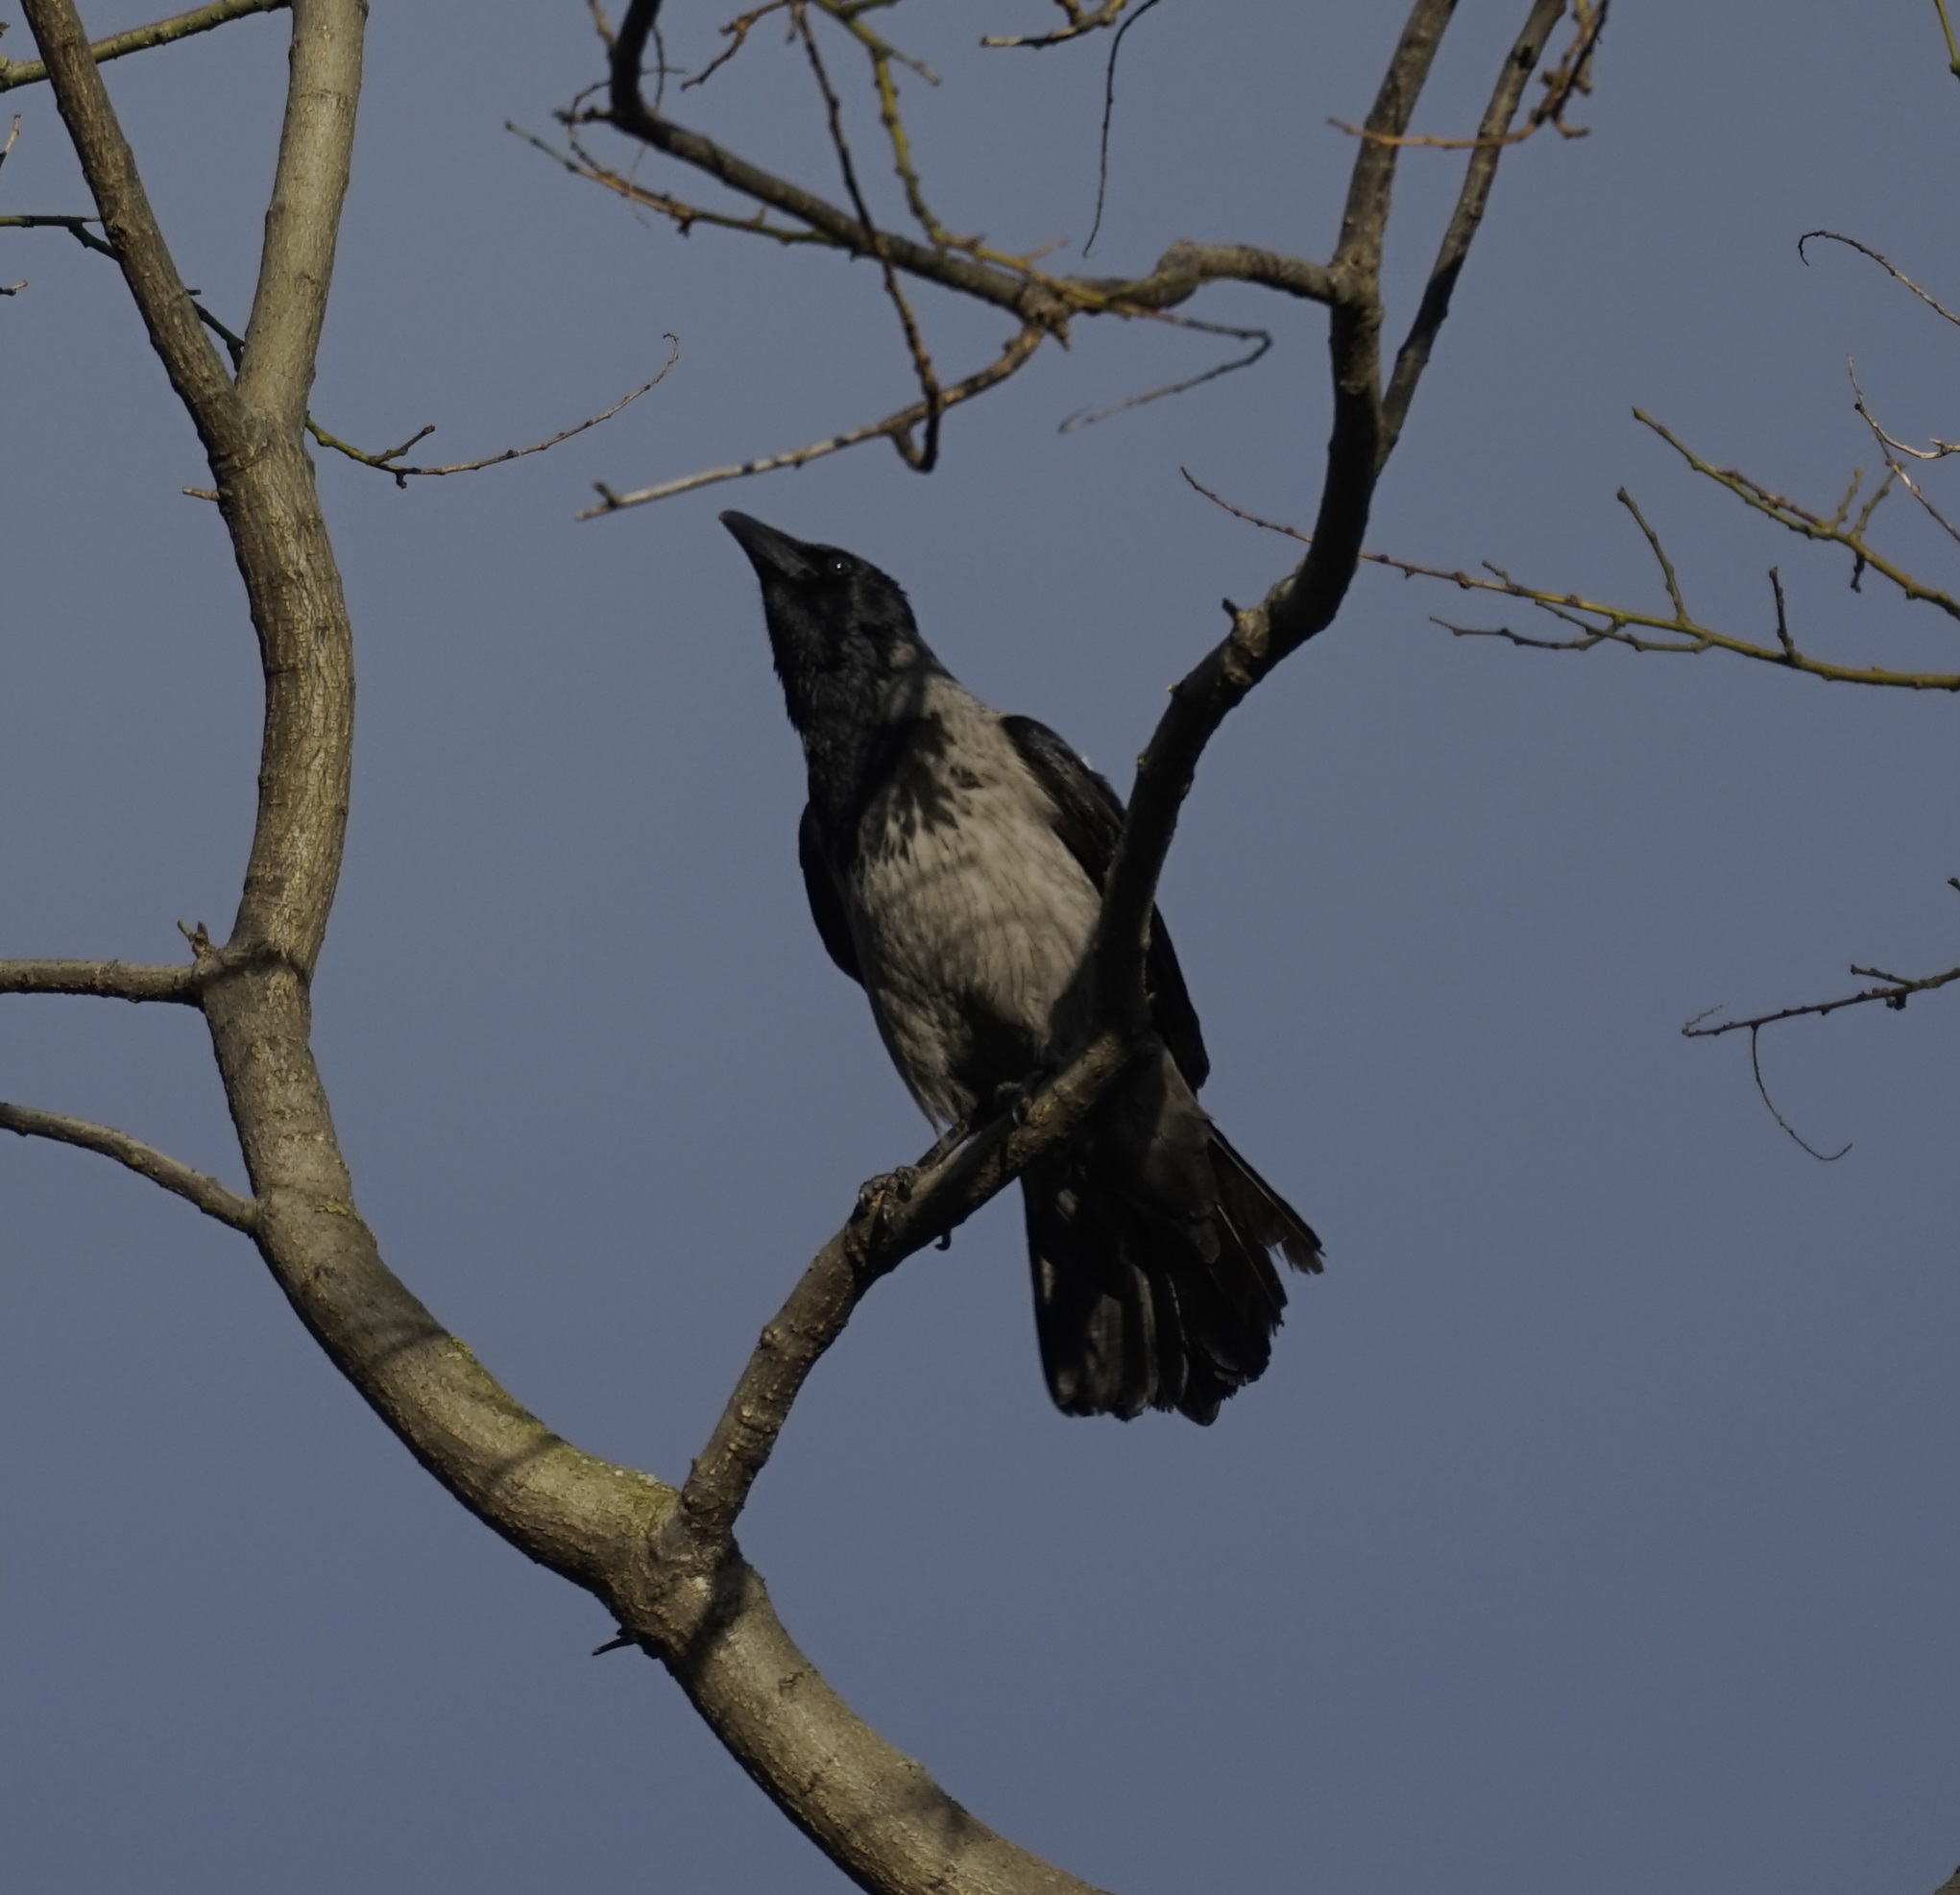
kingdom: Animalia
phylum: Chordata
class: Aves
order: Passeriformes
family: Corvidae
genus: Corvus
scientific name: Corvus cornix
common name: Hooded crow
